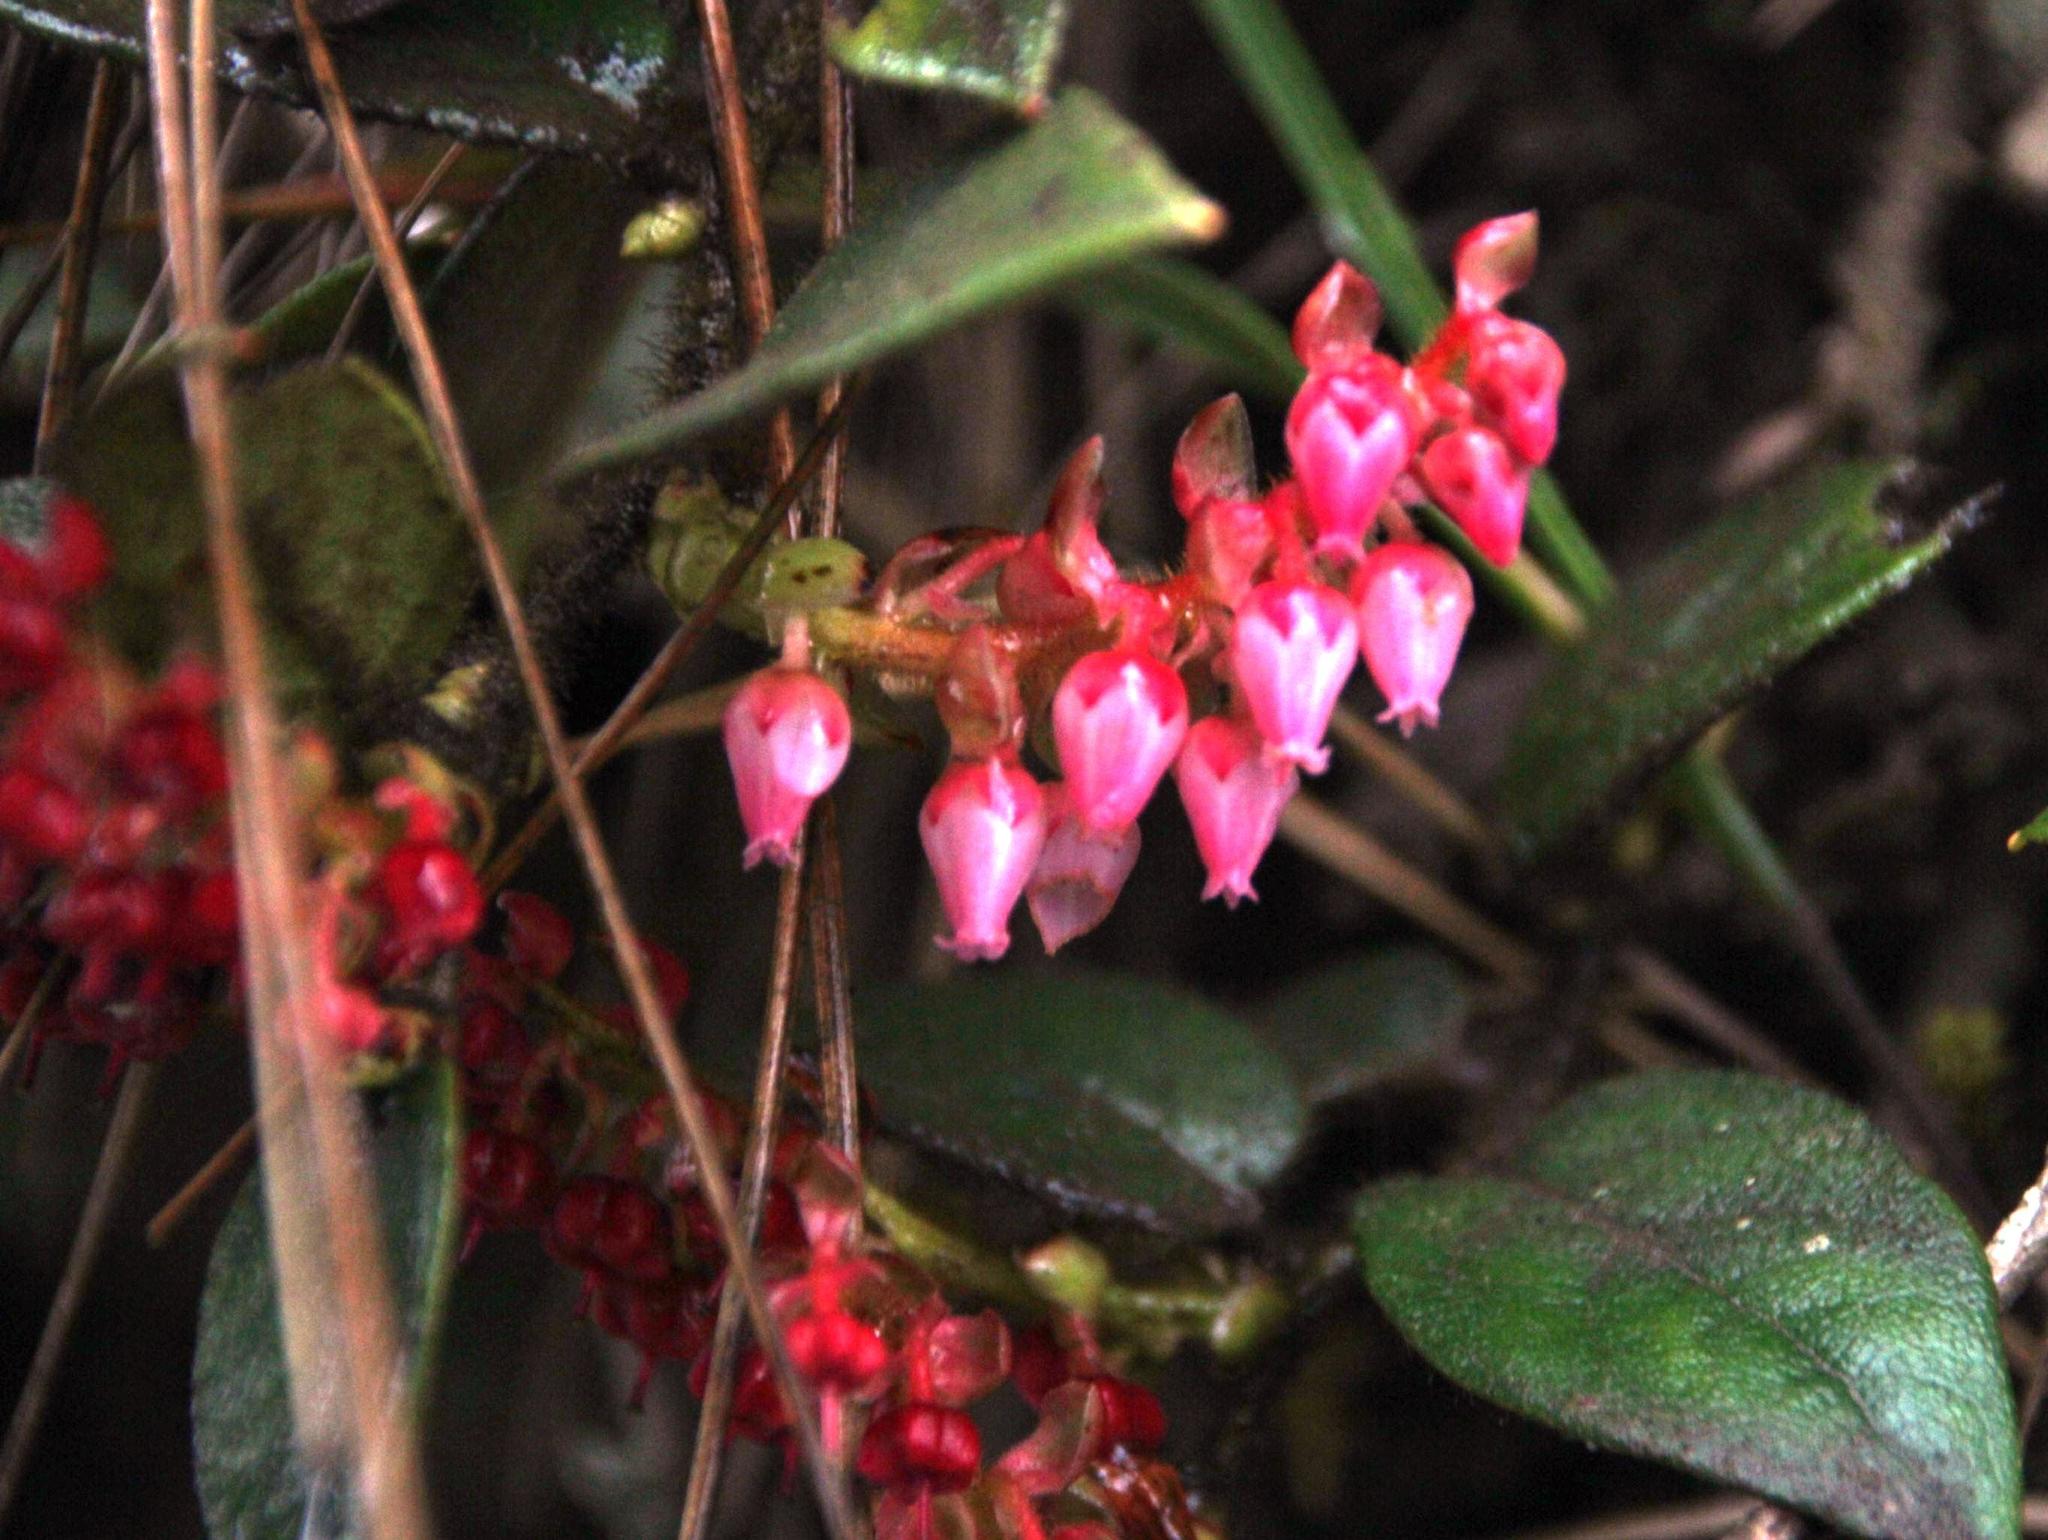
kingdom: Plantae
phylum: Tracheophyta
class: Magnoliopsida
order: Ericales
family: Ericaceae
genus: Gaultheria
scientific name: Gaultheria bracteata
